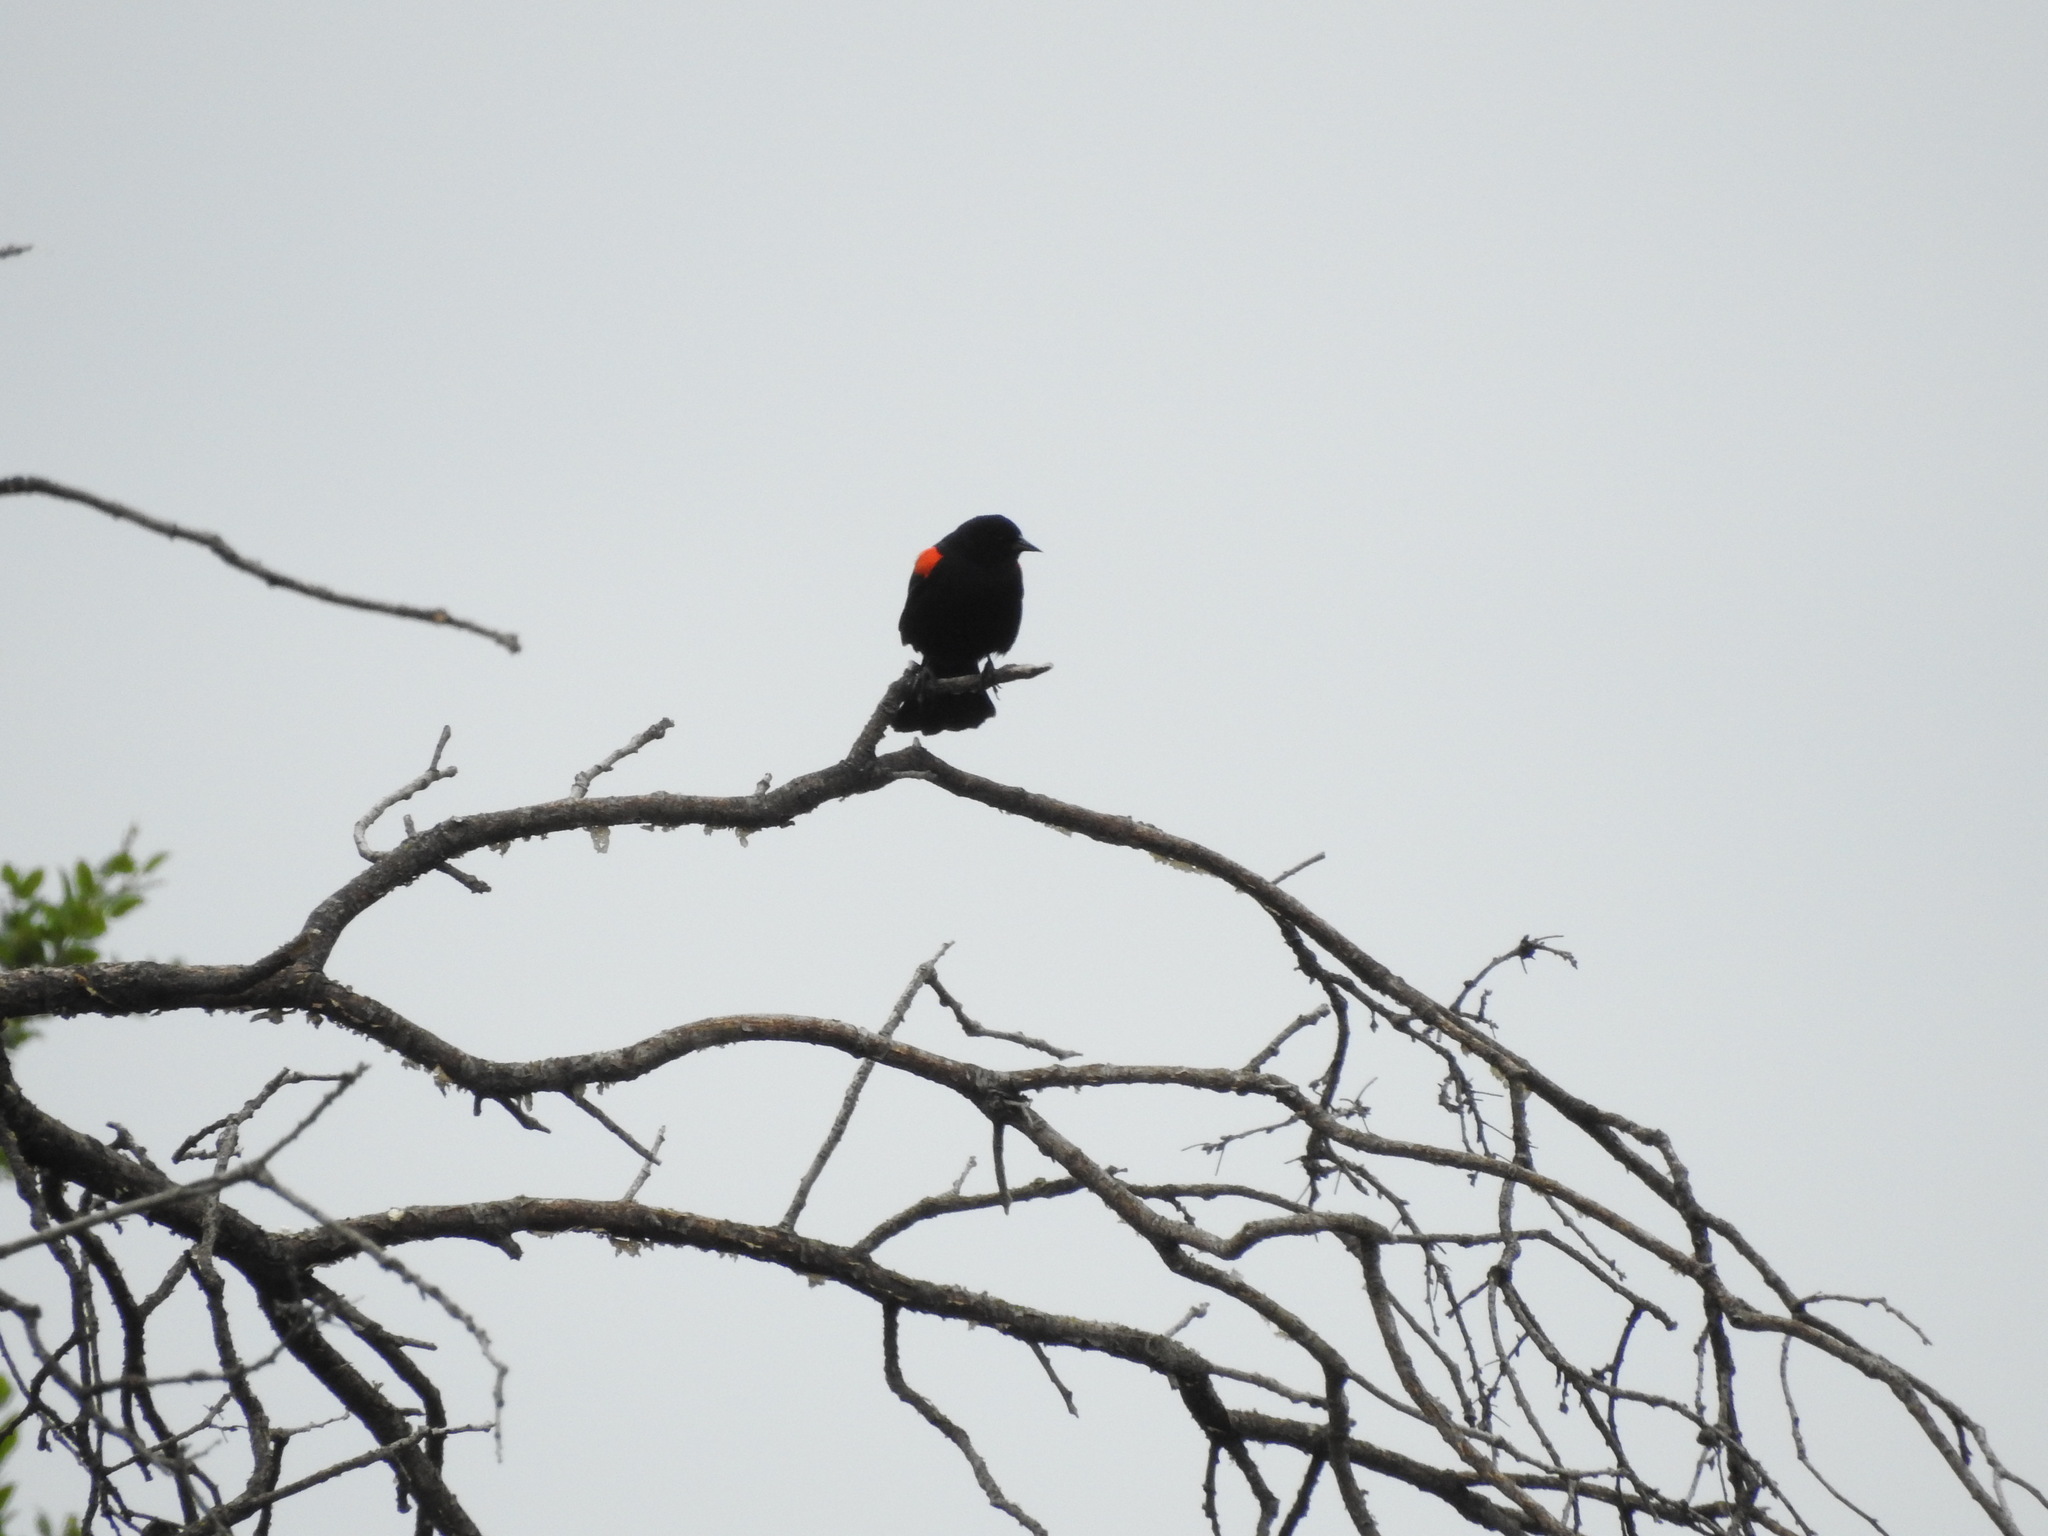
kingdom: Animalia
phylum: Chordata
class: Aves
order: Passeriformes
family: Icteridae
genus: Agelaius
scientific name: Agelaius phoeniceus
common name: Red-winged blackbird
